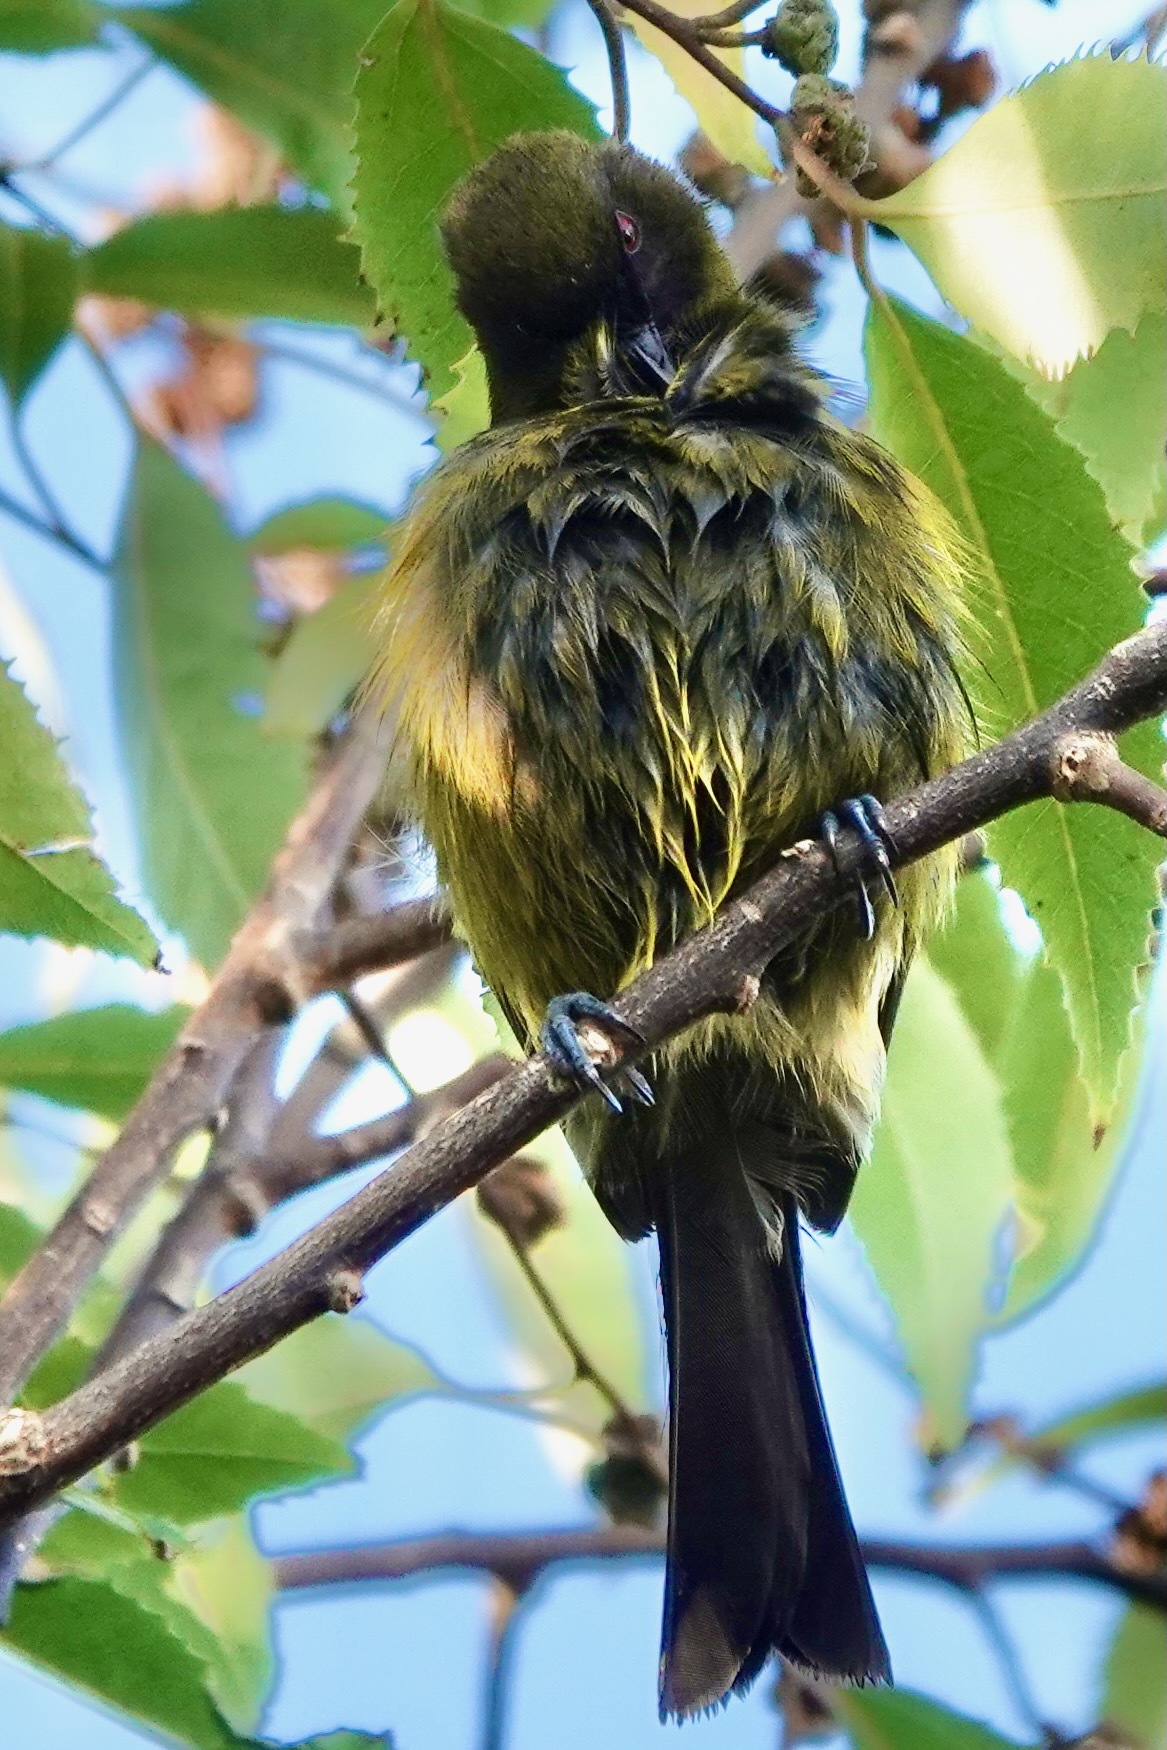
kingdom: Animalia
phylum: Chordata
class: Aves
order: Passeriformes
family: Meliphagidae
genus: Anthornis
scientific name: Anthornis melanura
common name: New zealand bellbird
